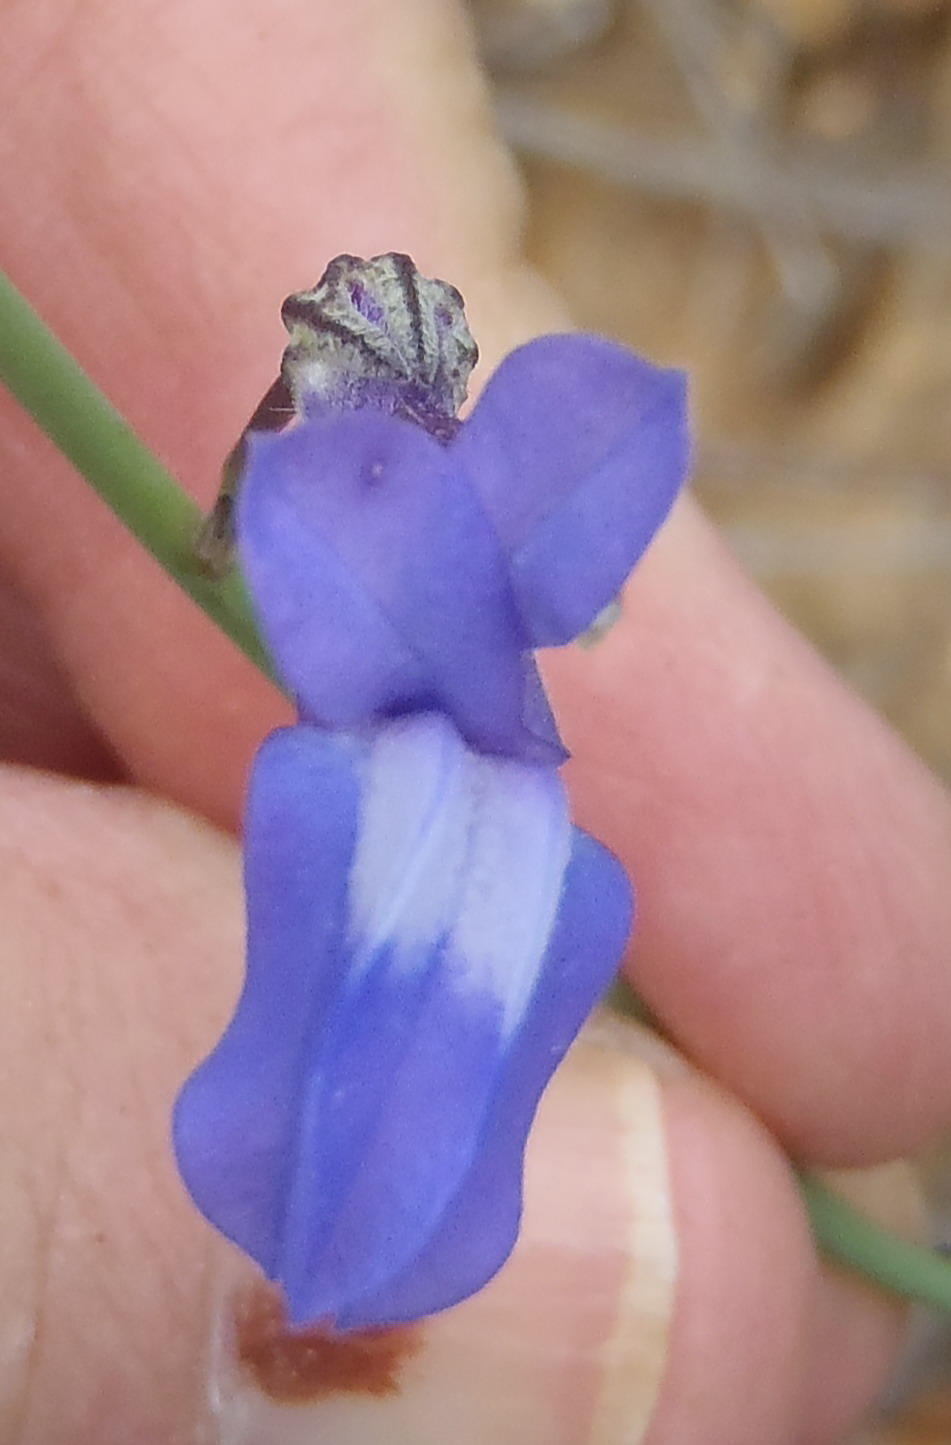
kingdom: Plantae
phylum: Tracheophyta
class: Magnoliopsida
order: Asterales
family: Campanulaceae
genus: Lobelia
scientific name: Lobelia linearis
